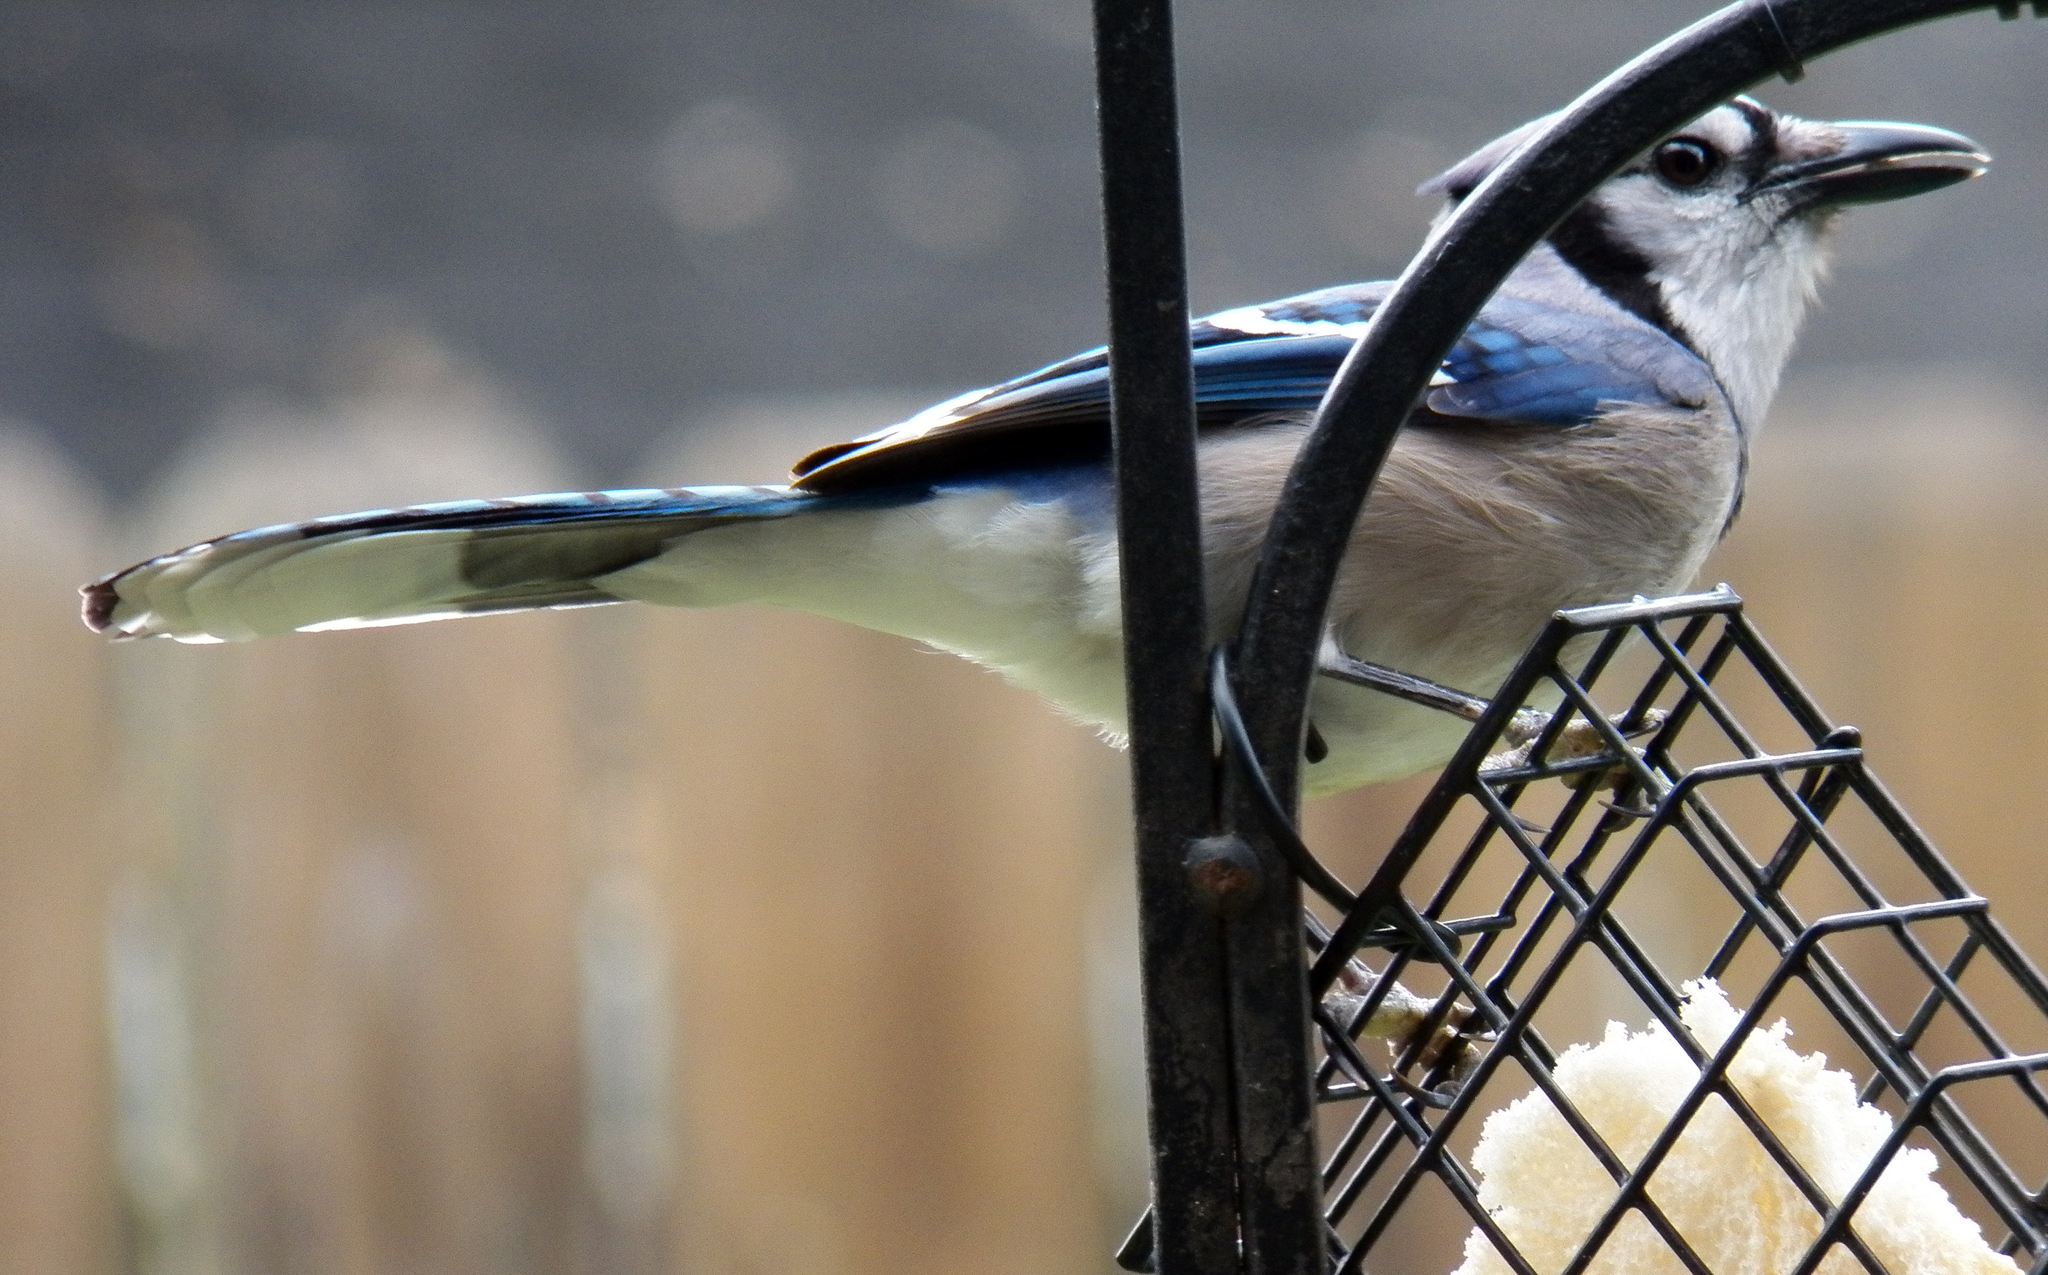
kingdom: Animalia
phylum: Chordata
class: Aves
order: Passeriformes
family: Corvidae
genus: Cyanocitta
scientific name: Cyanocitta cristata
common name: Blue jay
